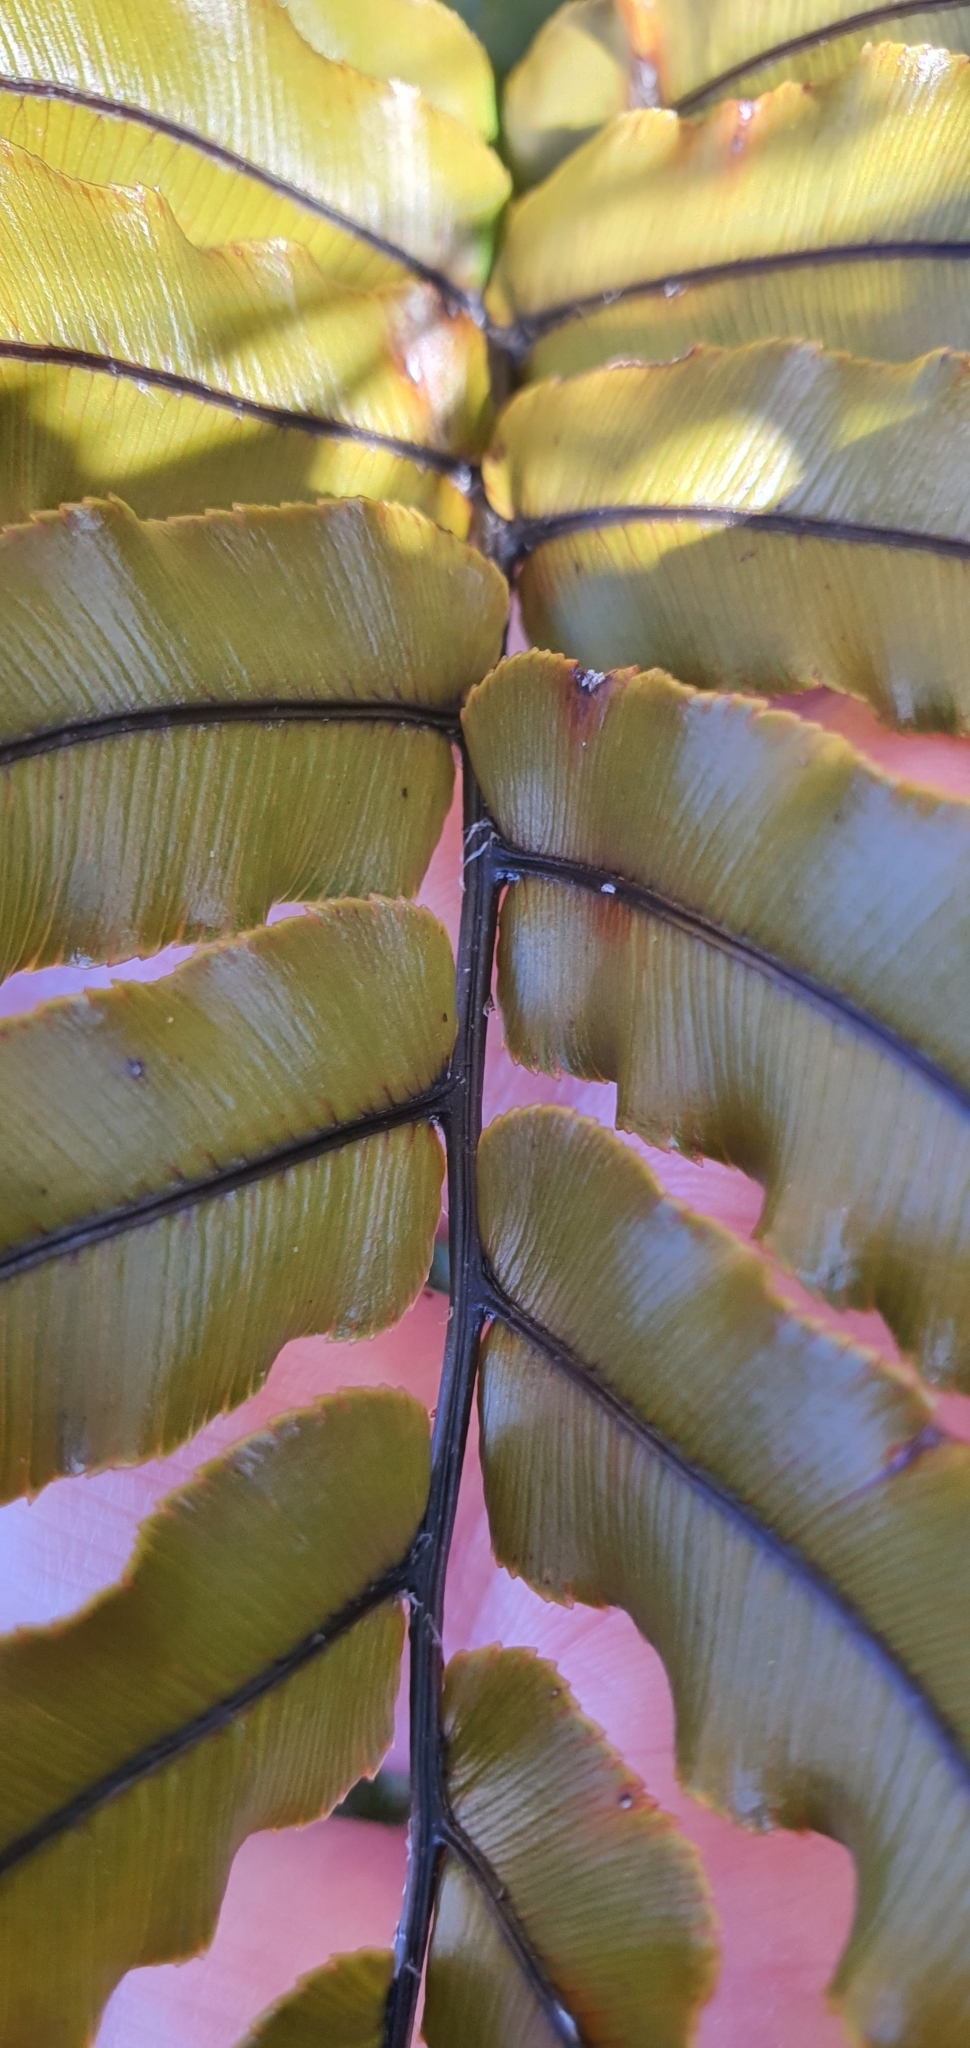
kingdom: Plantae
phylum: Tracheophyta
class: Polypodiopsida
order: Polypodiales
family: Blechnaceae
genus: Parablechnum
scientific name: Parablechnum montanum
